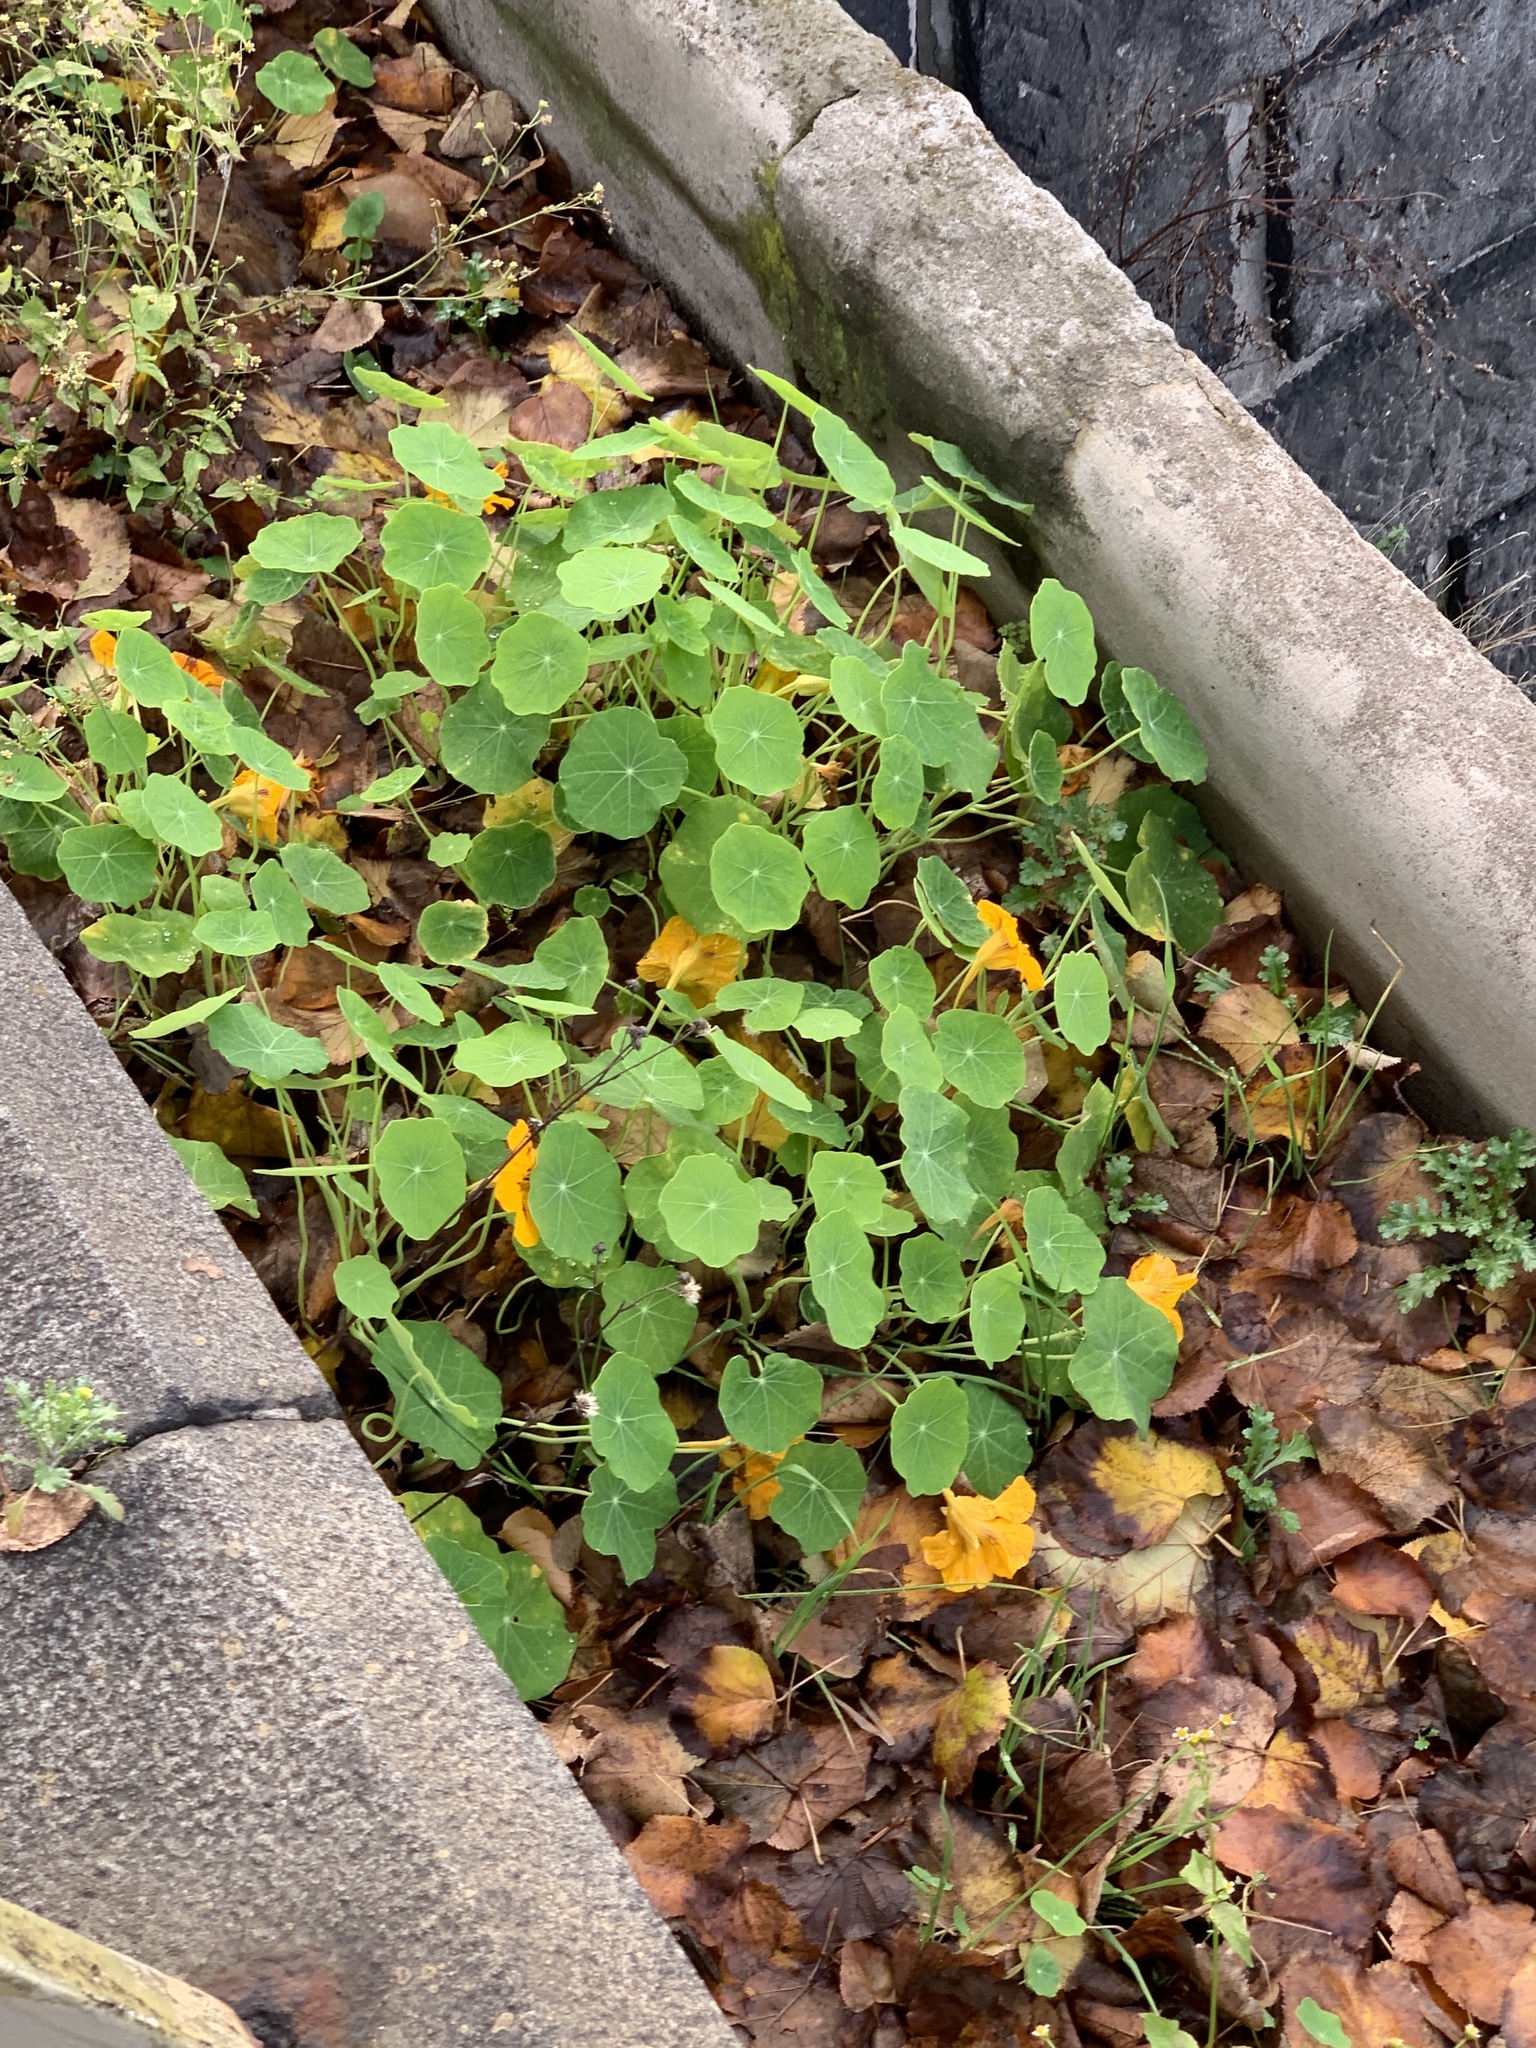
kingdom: Plantae
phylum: Tracheophyta
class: Magnoliopsida
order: Brassicales
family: Tropaeolaceae
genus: Tropaeolum
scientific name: Tropaeolum majus
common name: Nasturtium
